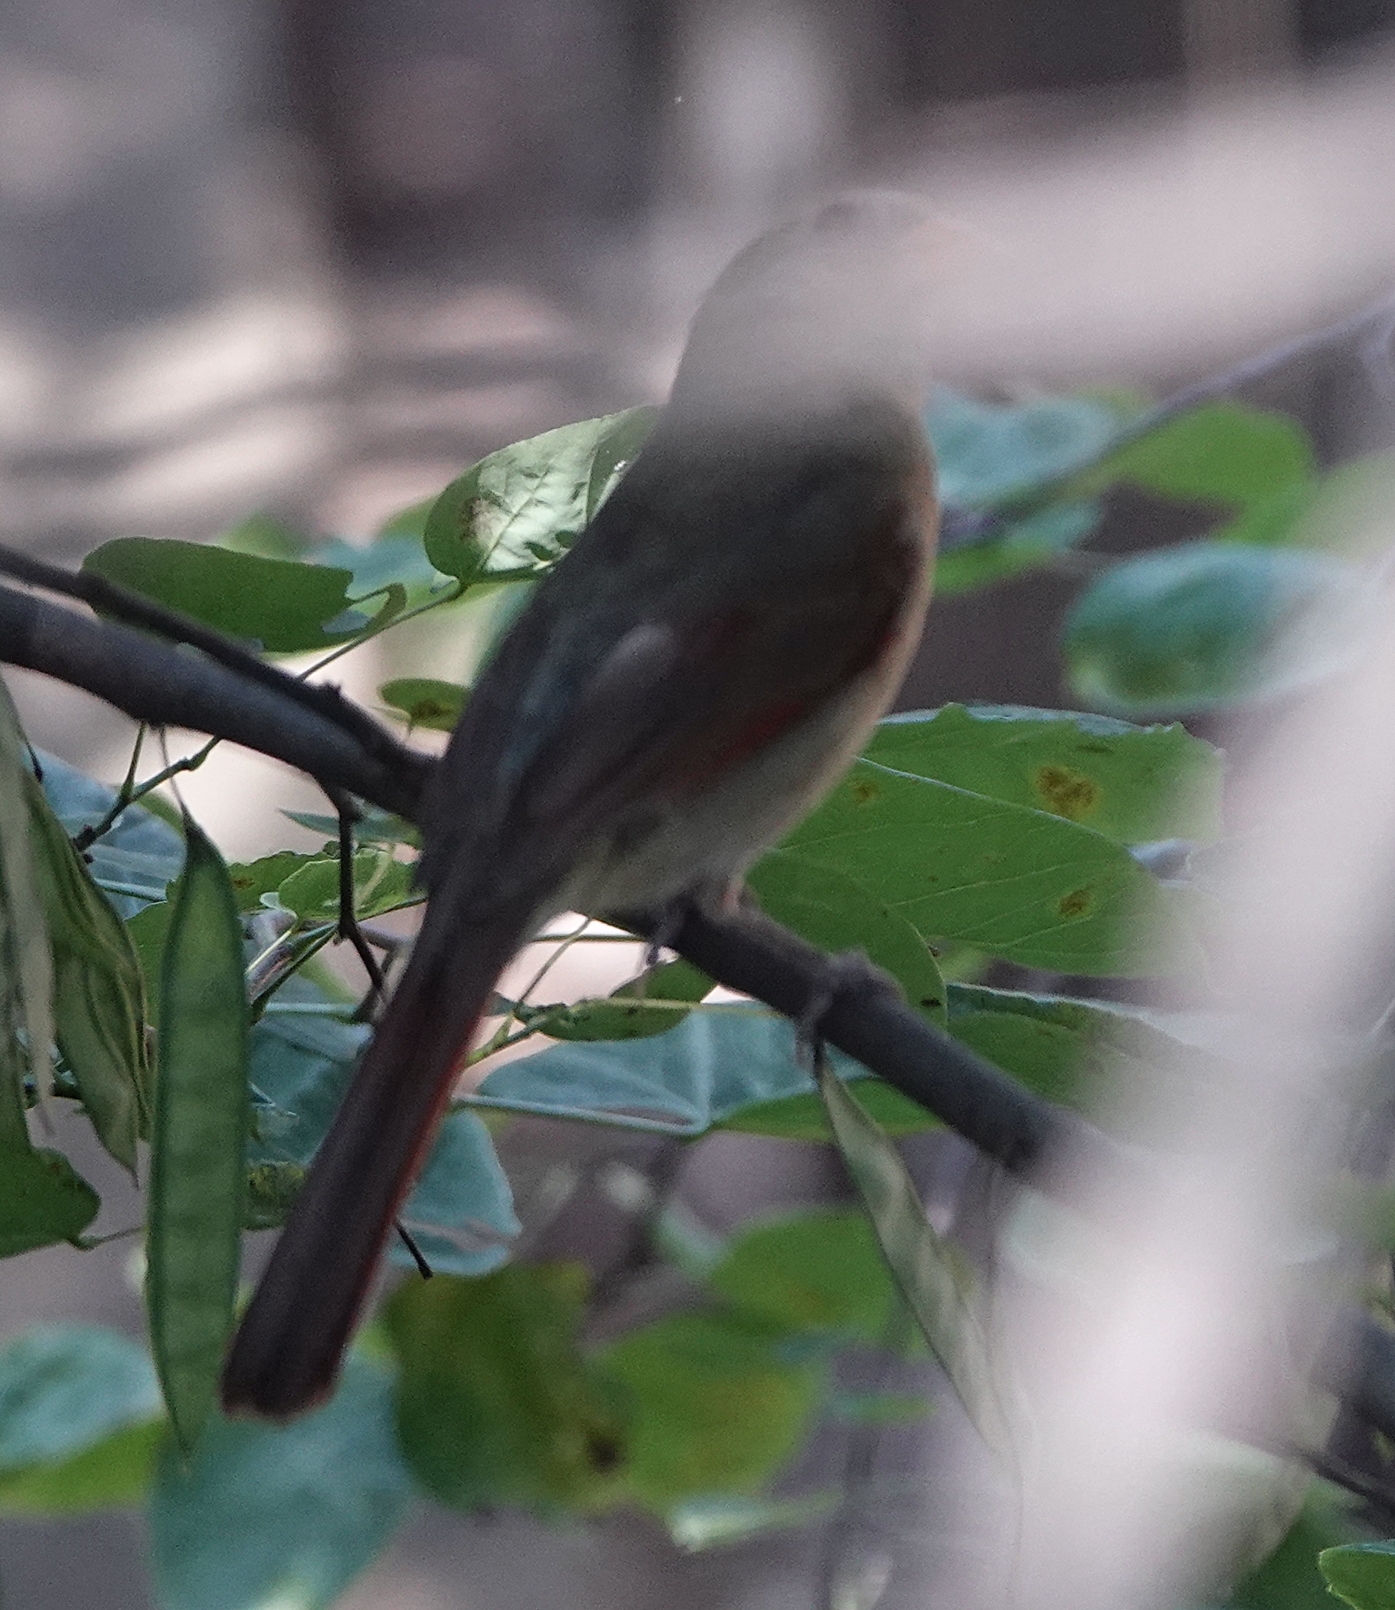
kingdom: Animalia
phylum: Chordata
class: Aves
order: Passeriformes
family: Cardinalidae
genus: Cardinalis
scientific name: Cardinalis cardinalis
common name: Northern cardinal
